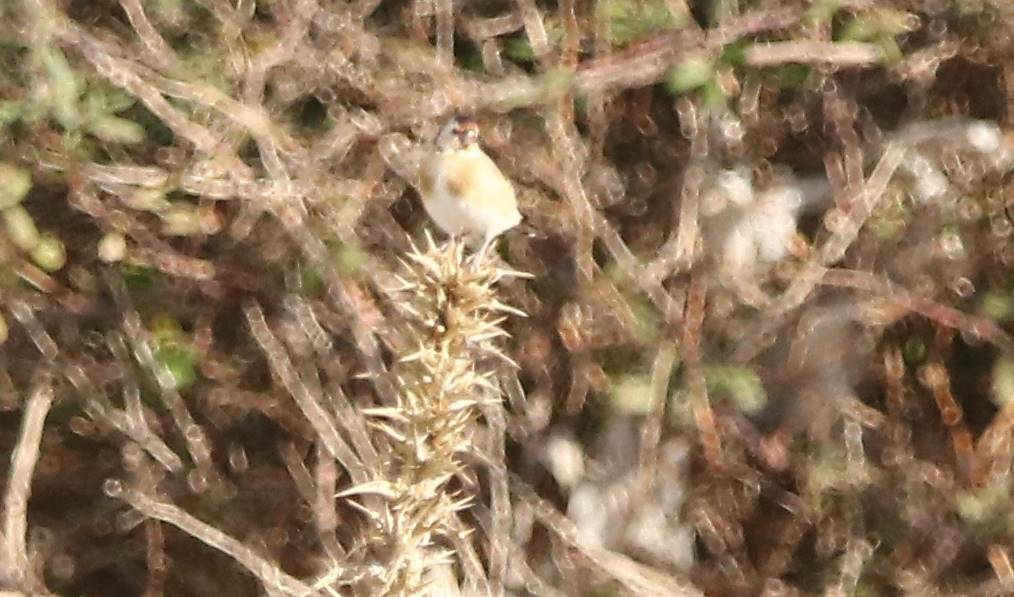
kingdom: Animalia
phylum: Chordata
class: Aves
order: Passeriformes
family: Fringillidae
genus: Carduelis
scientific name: Carduelis carduelis
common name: European goldfinch
